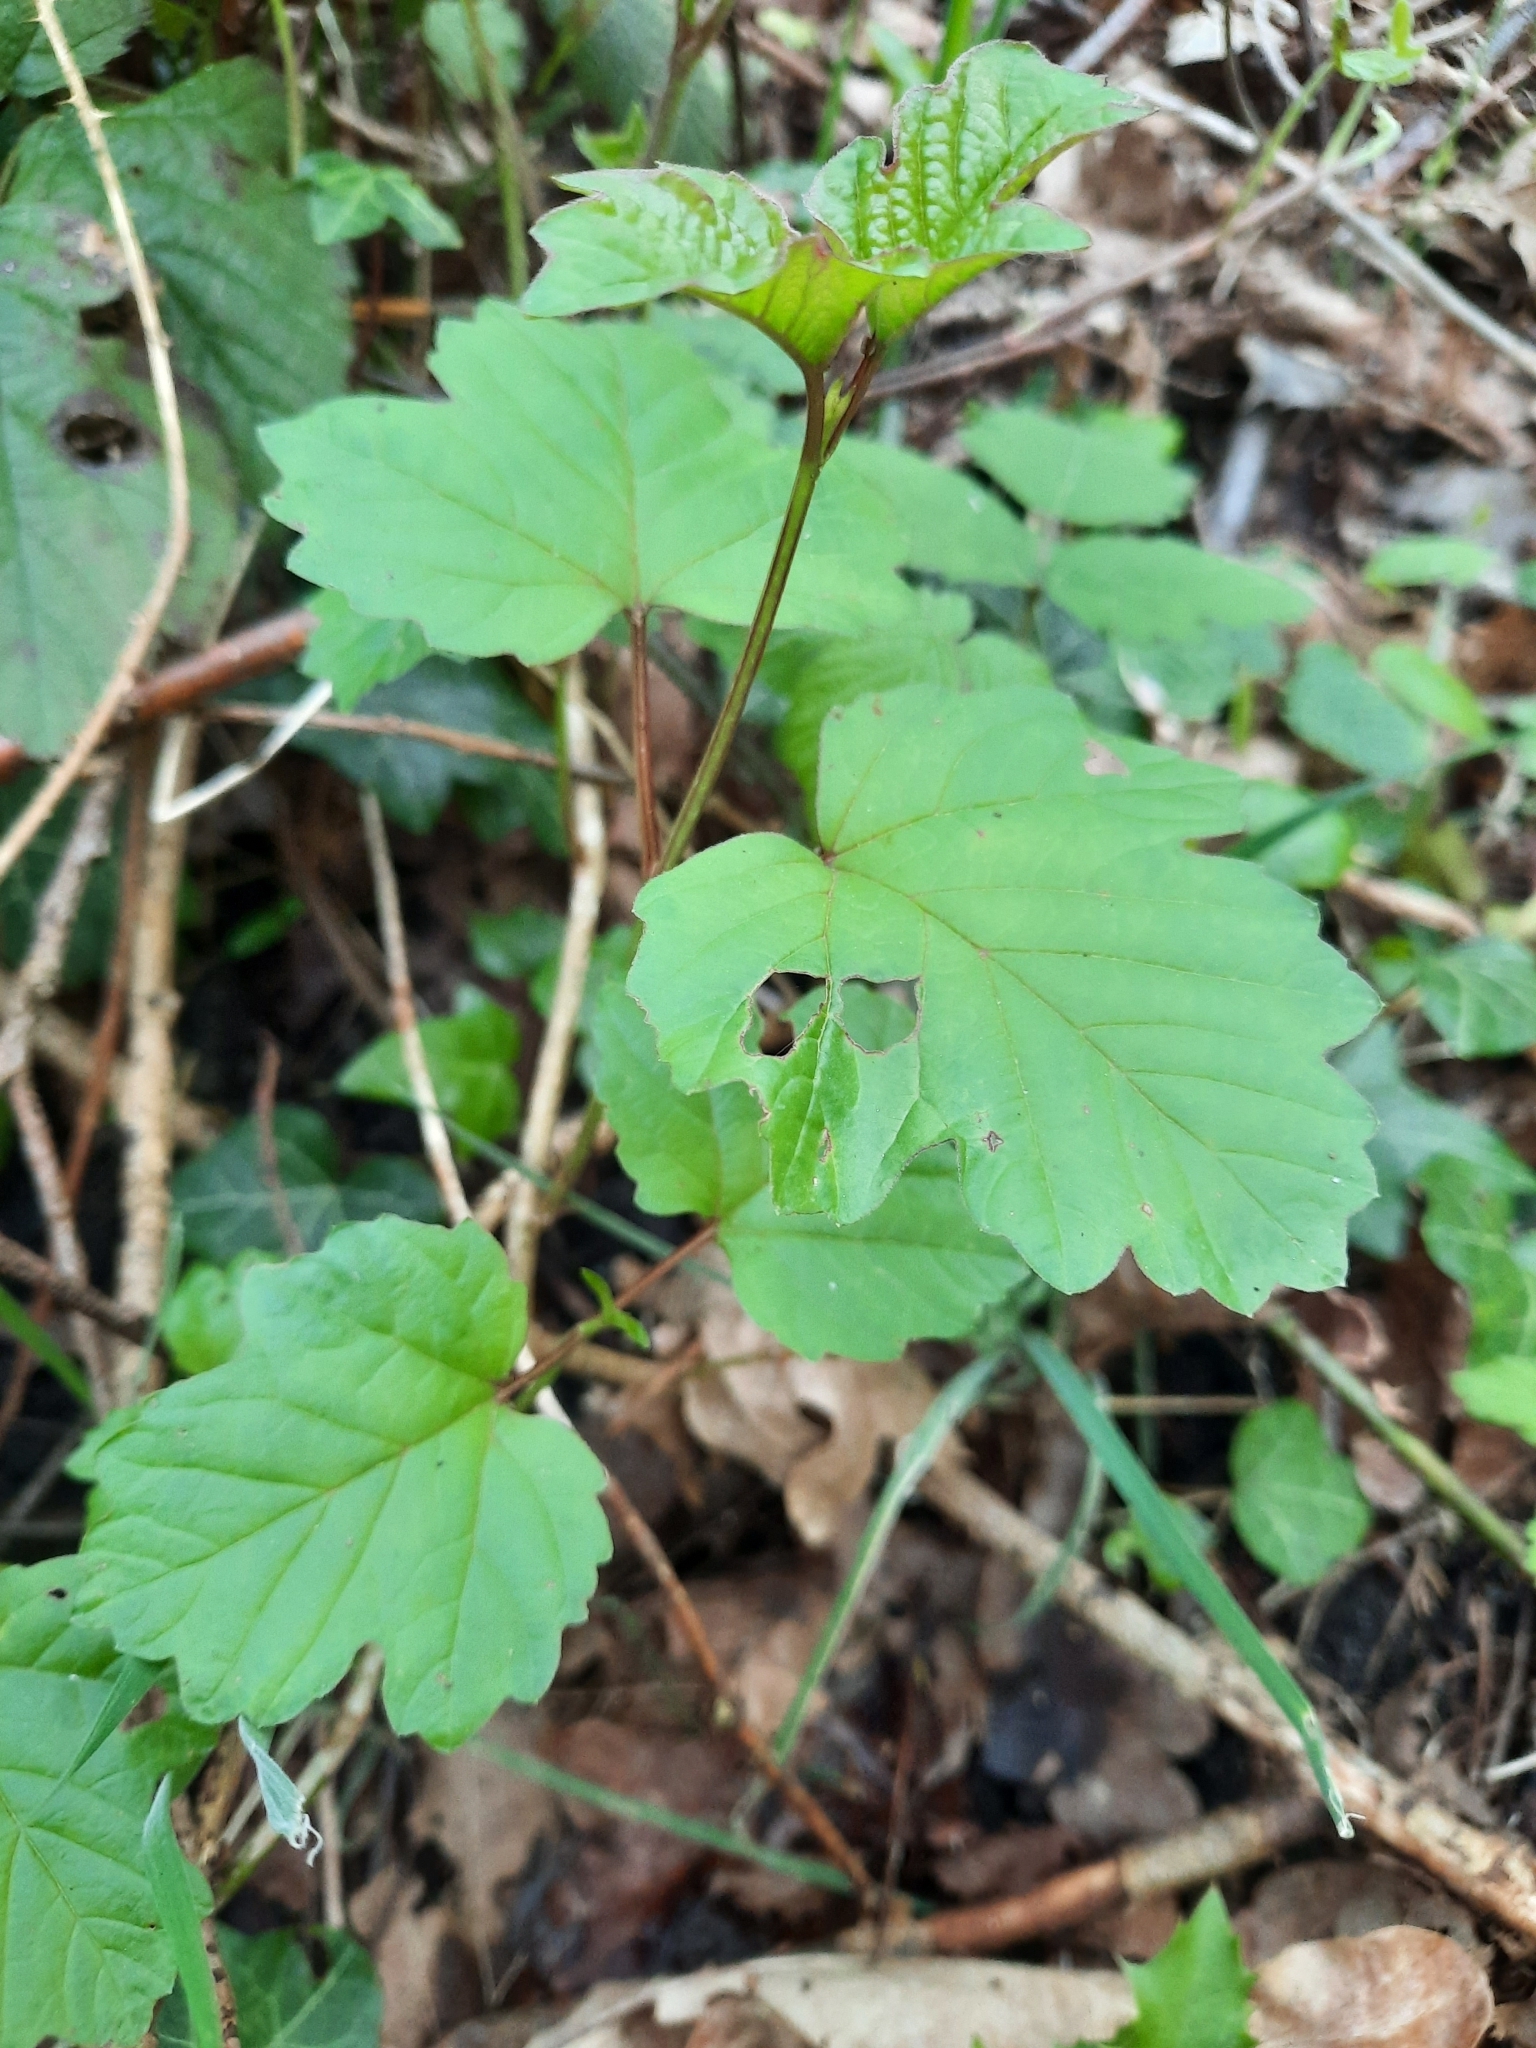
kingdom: Plantae
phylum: Tracheophyta
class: Magnoliopsida
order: Dipsacales
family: Viburnaceae
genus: Viburnum
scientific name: Viburnum opulus
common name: Guelder-rose
